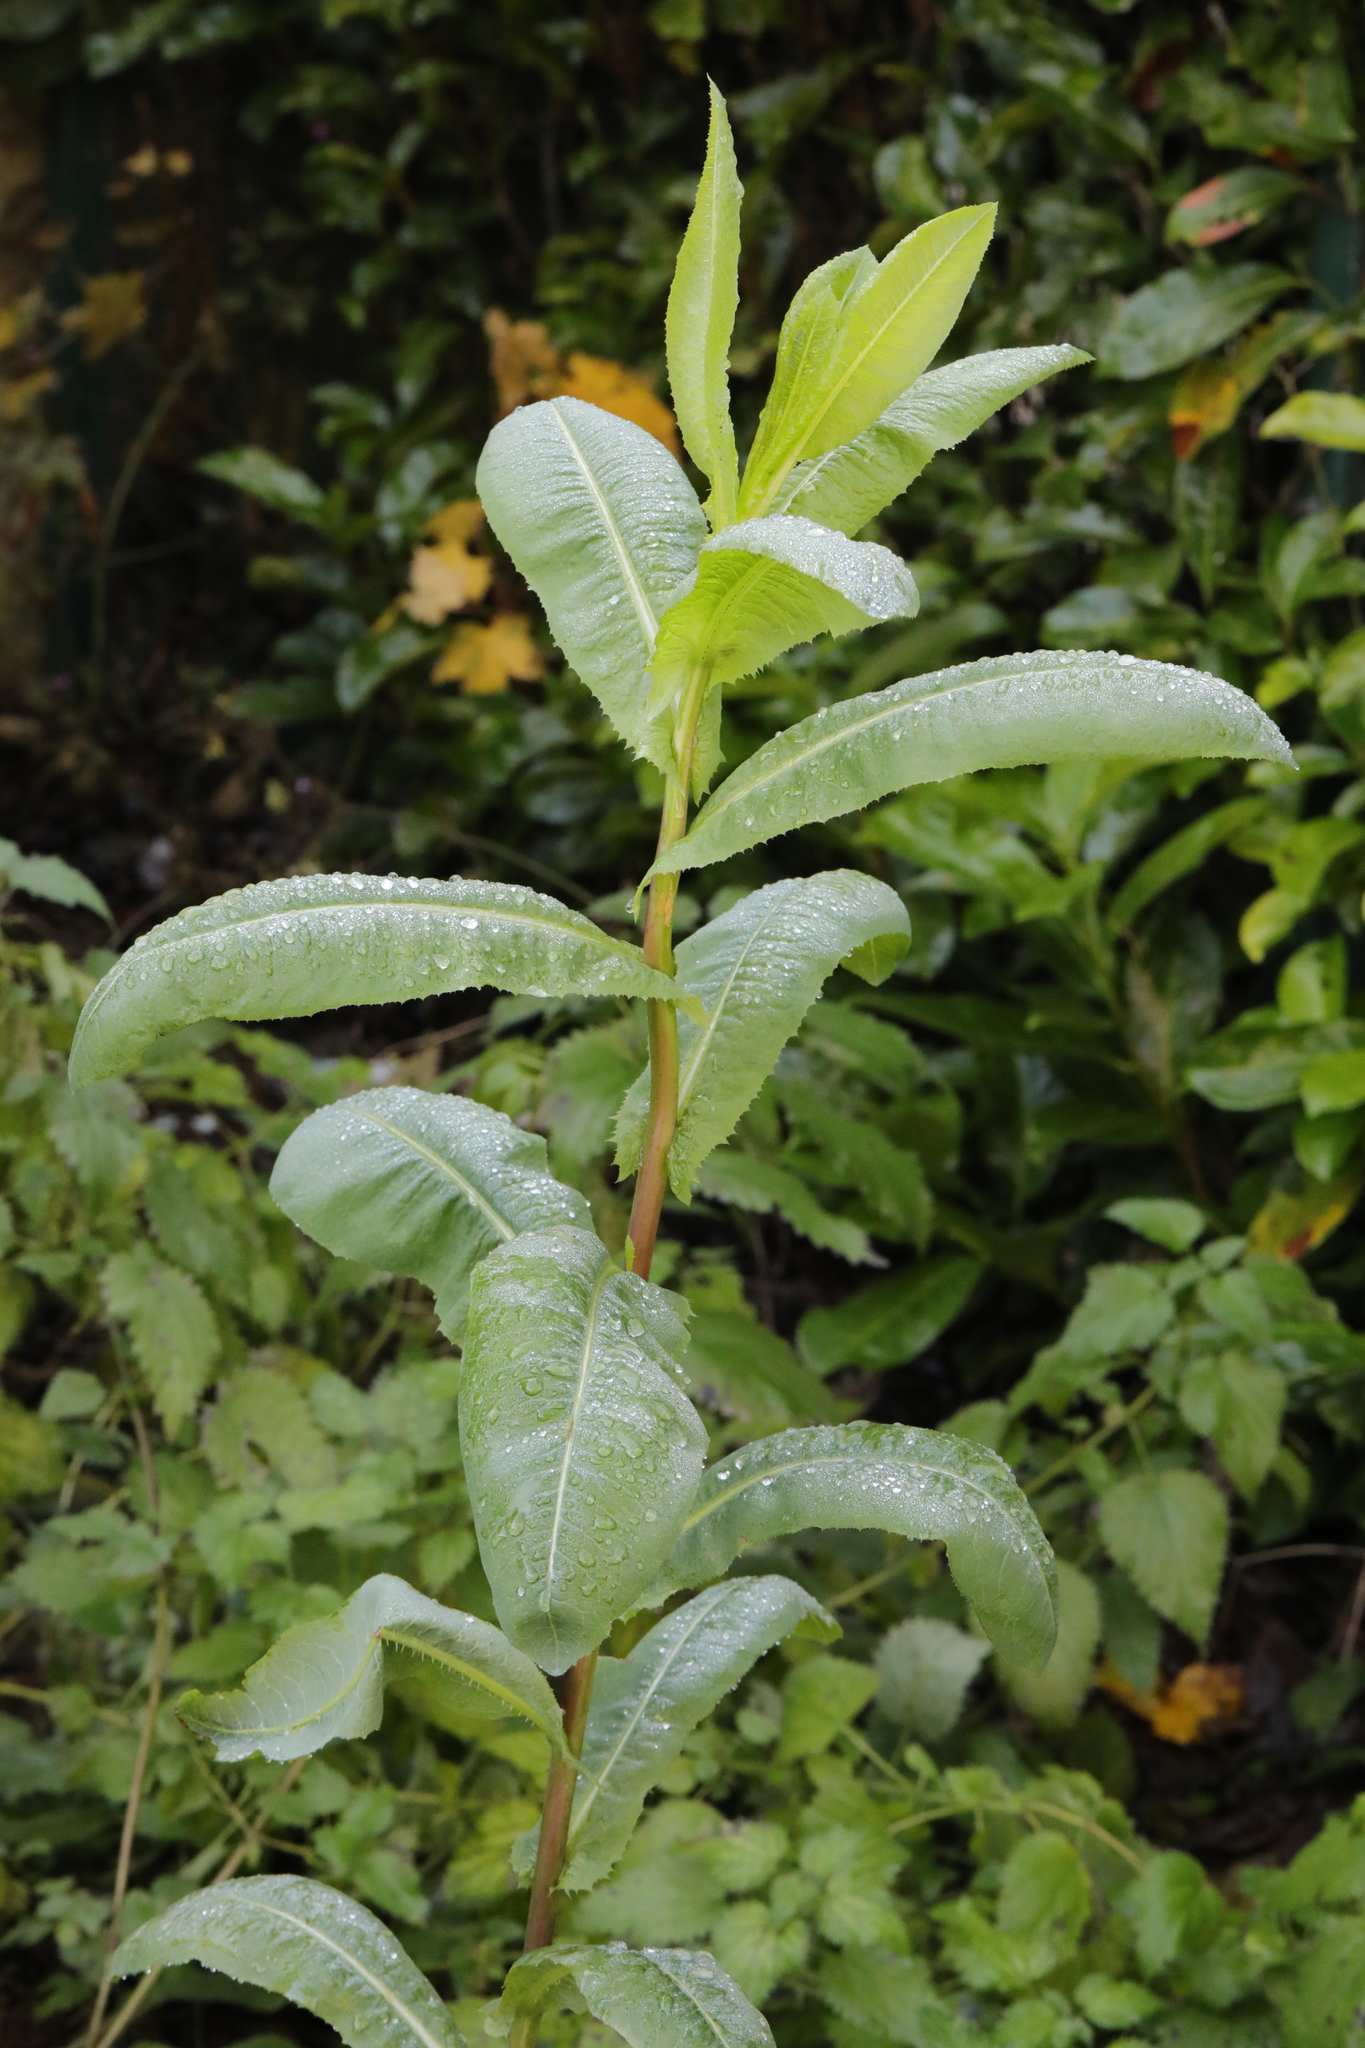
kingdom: Plantae
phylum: Tracheophyta
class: Magnoliopsida
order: Asterales
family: Asteraceae
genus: Lactuca
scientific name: Lactuca serriola
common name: Prickly lettuce
